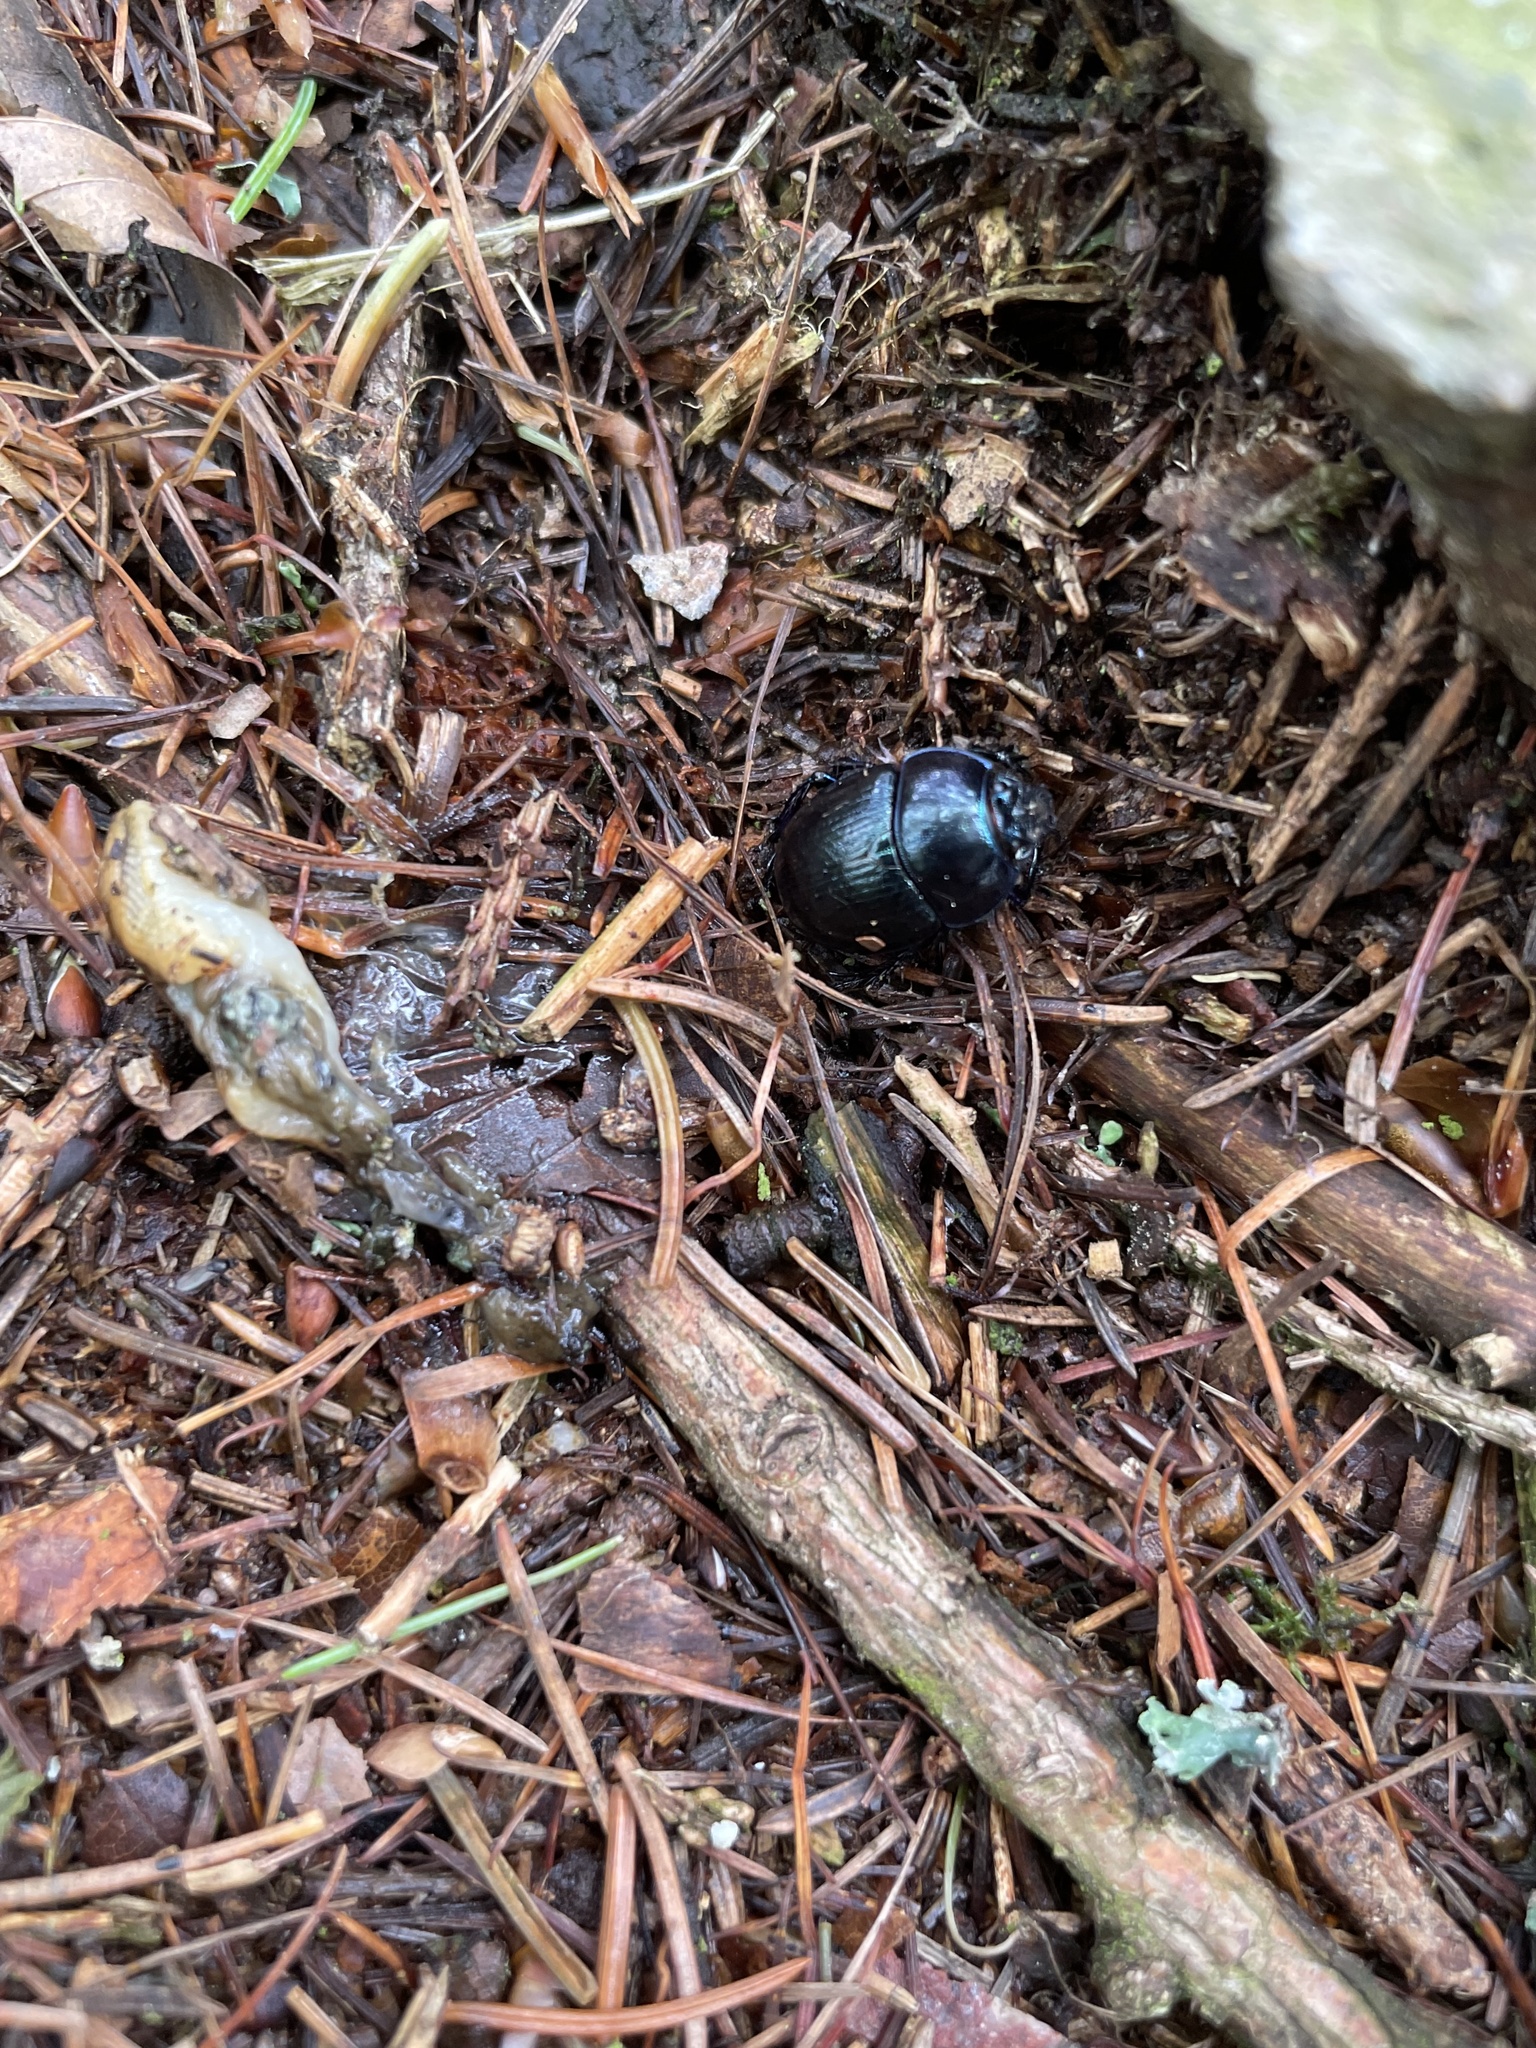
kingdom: Animalia
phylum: Arthropoda
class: Insecta
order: Coleoptera
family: Geotrupidae
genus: Anoplotrupes
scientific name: Anoplotrupes stercorosus
